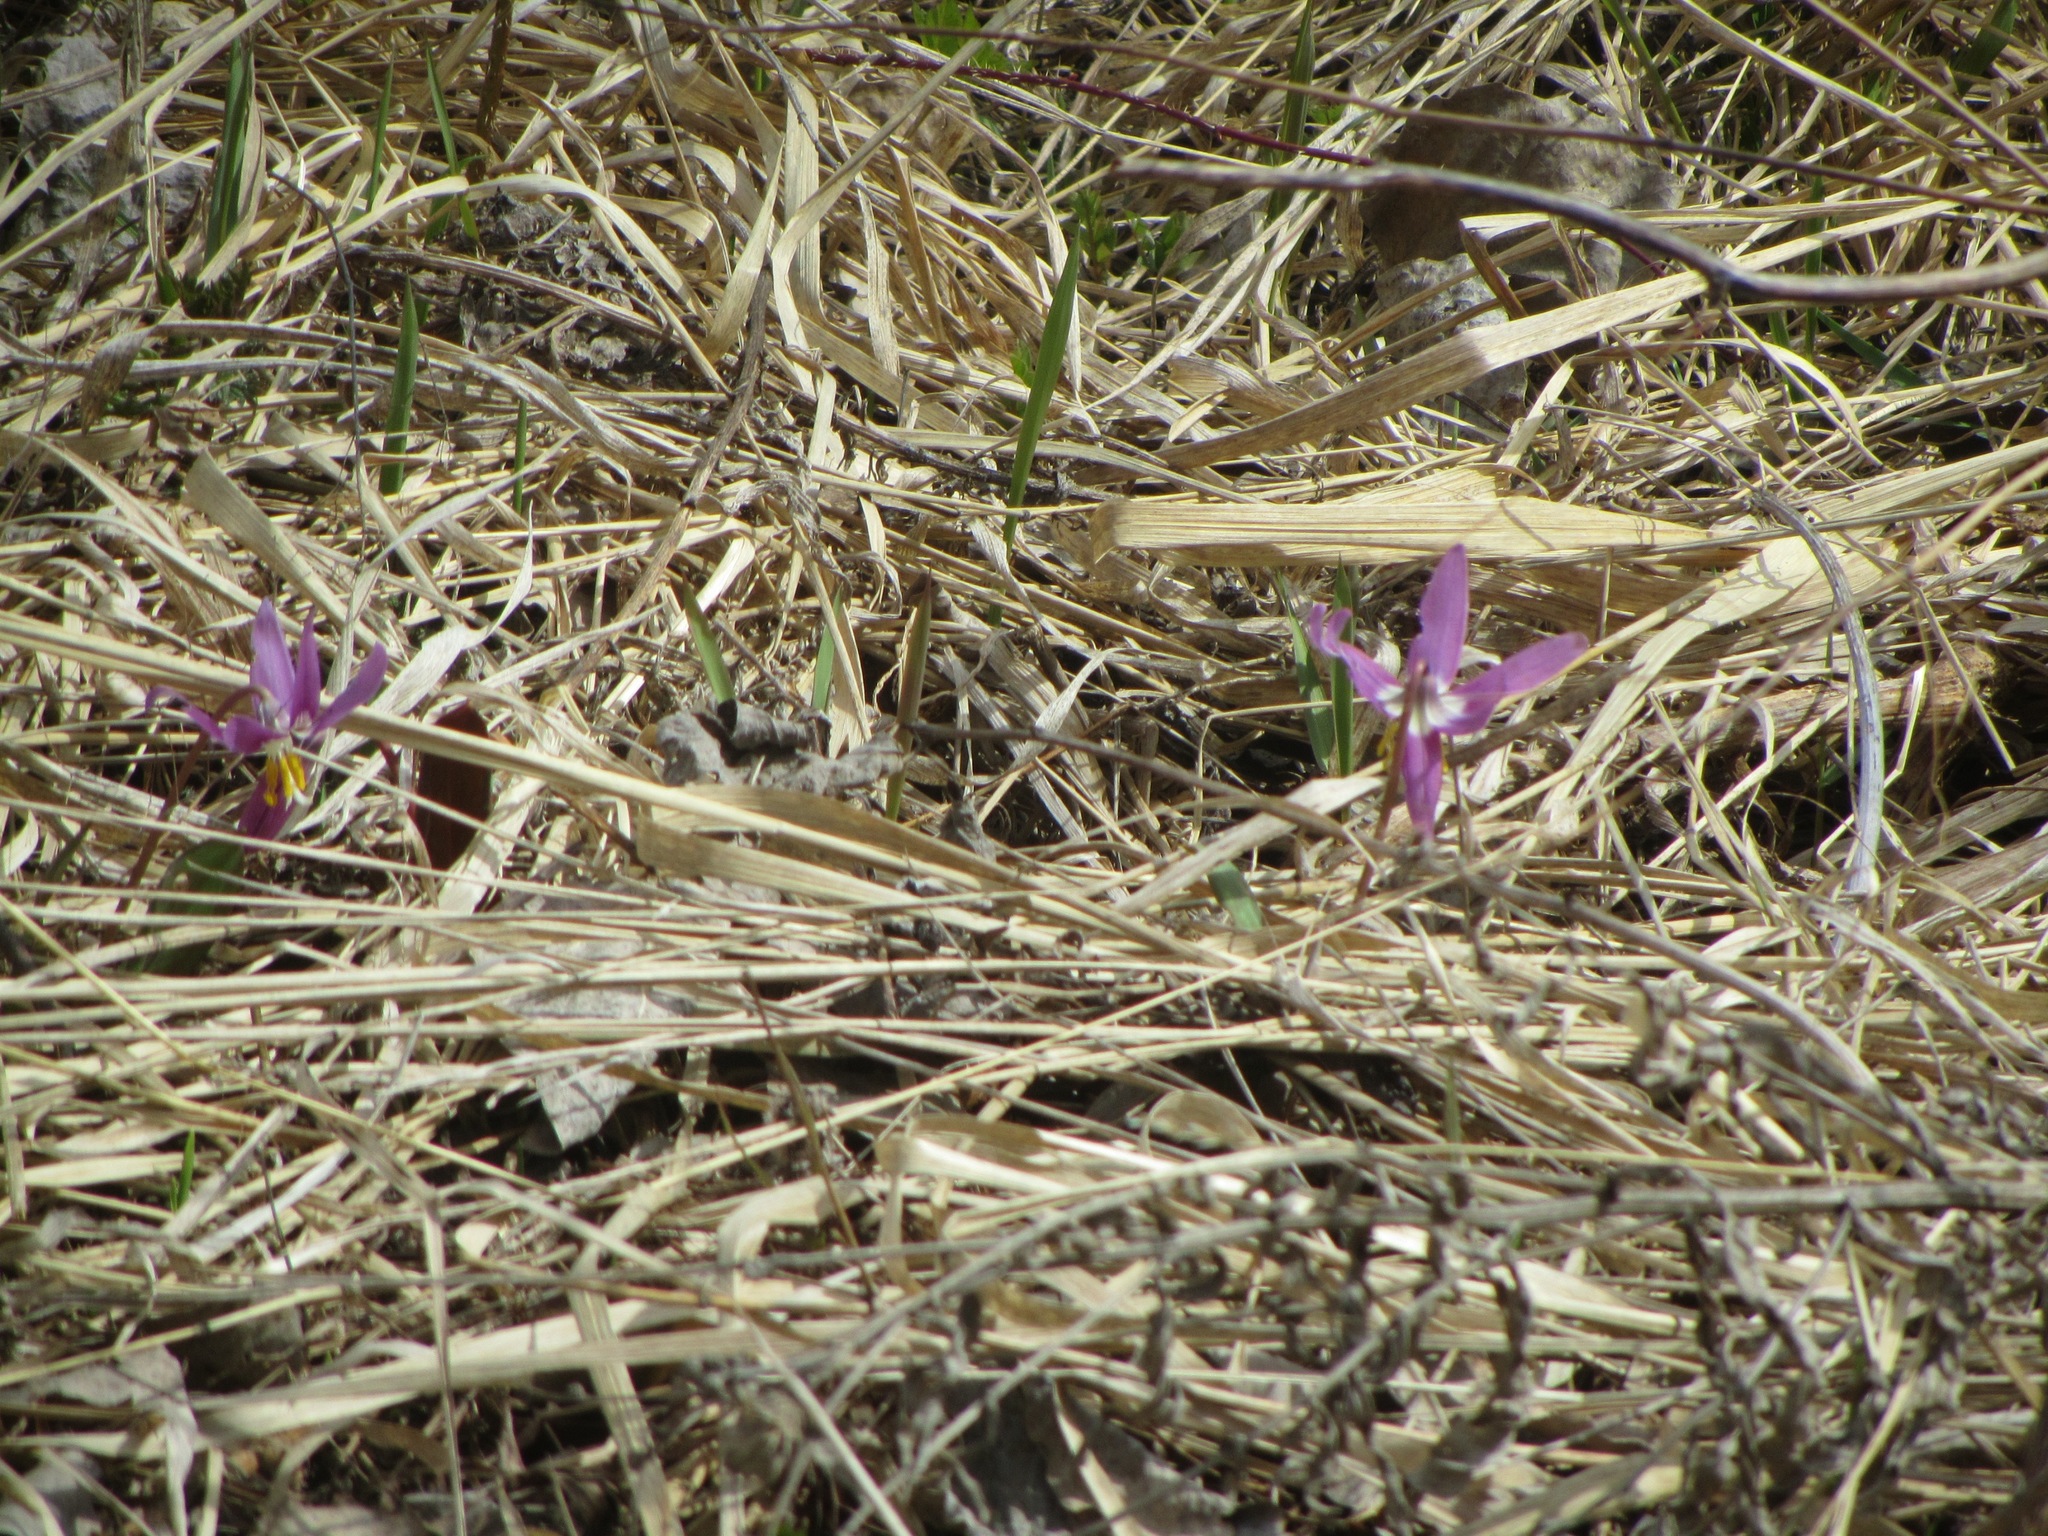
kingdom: Plantae
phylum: Tracheophyta
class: Liliopsida
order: Liliales
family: Liliaceae
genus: Erythronium
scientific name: Erythronium sibiricum
